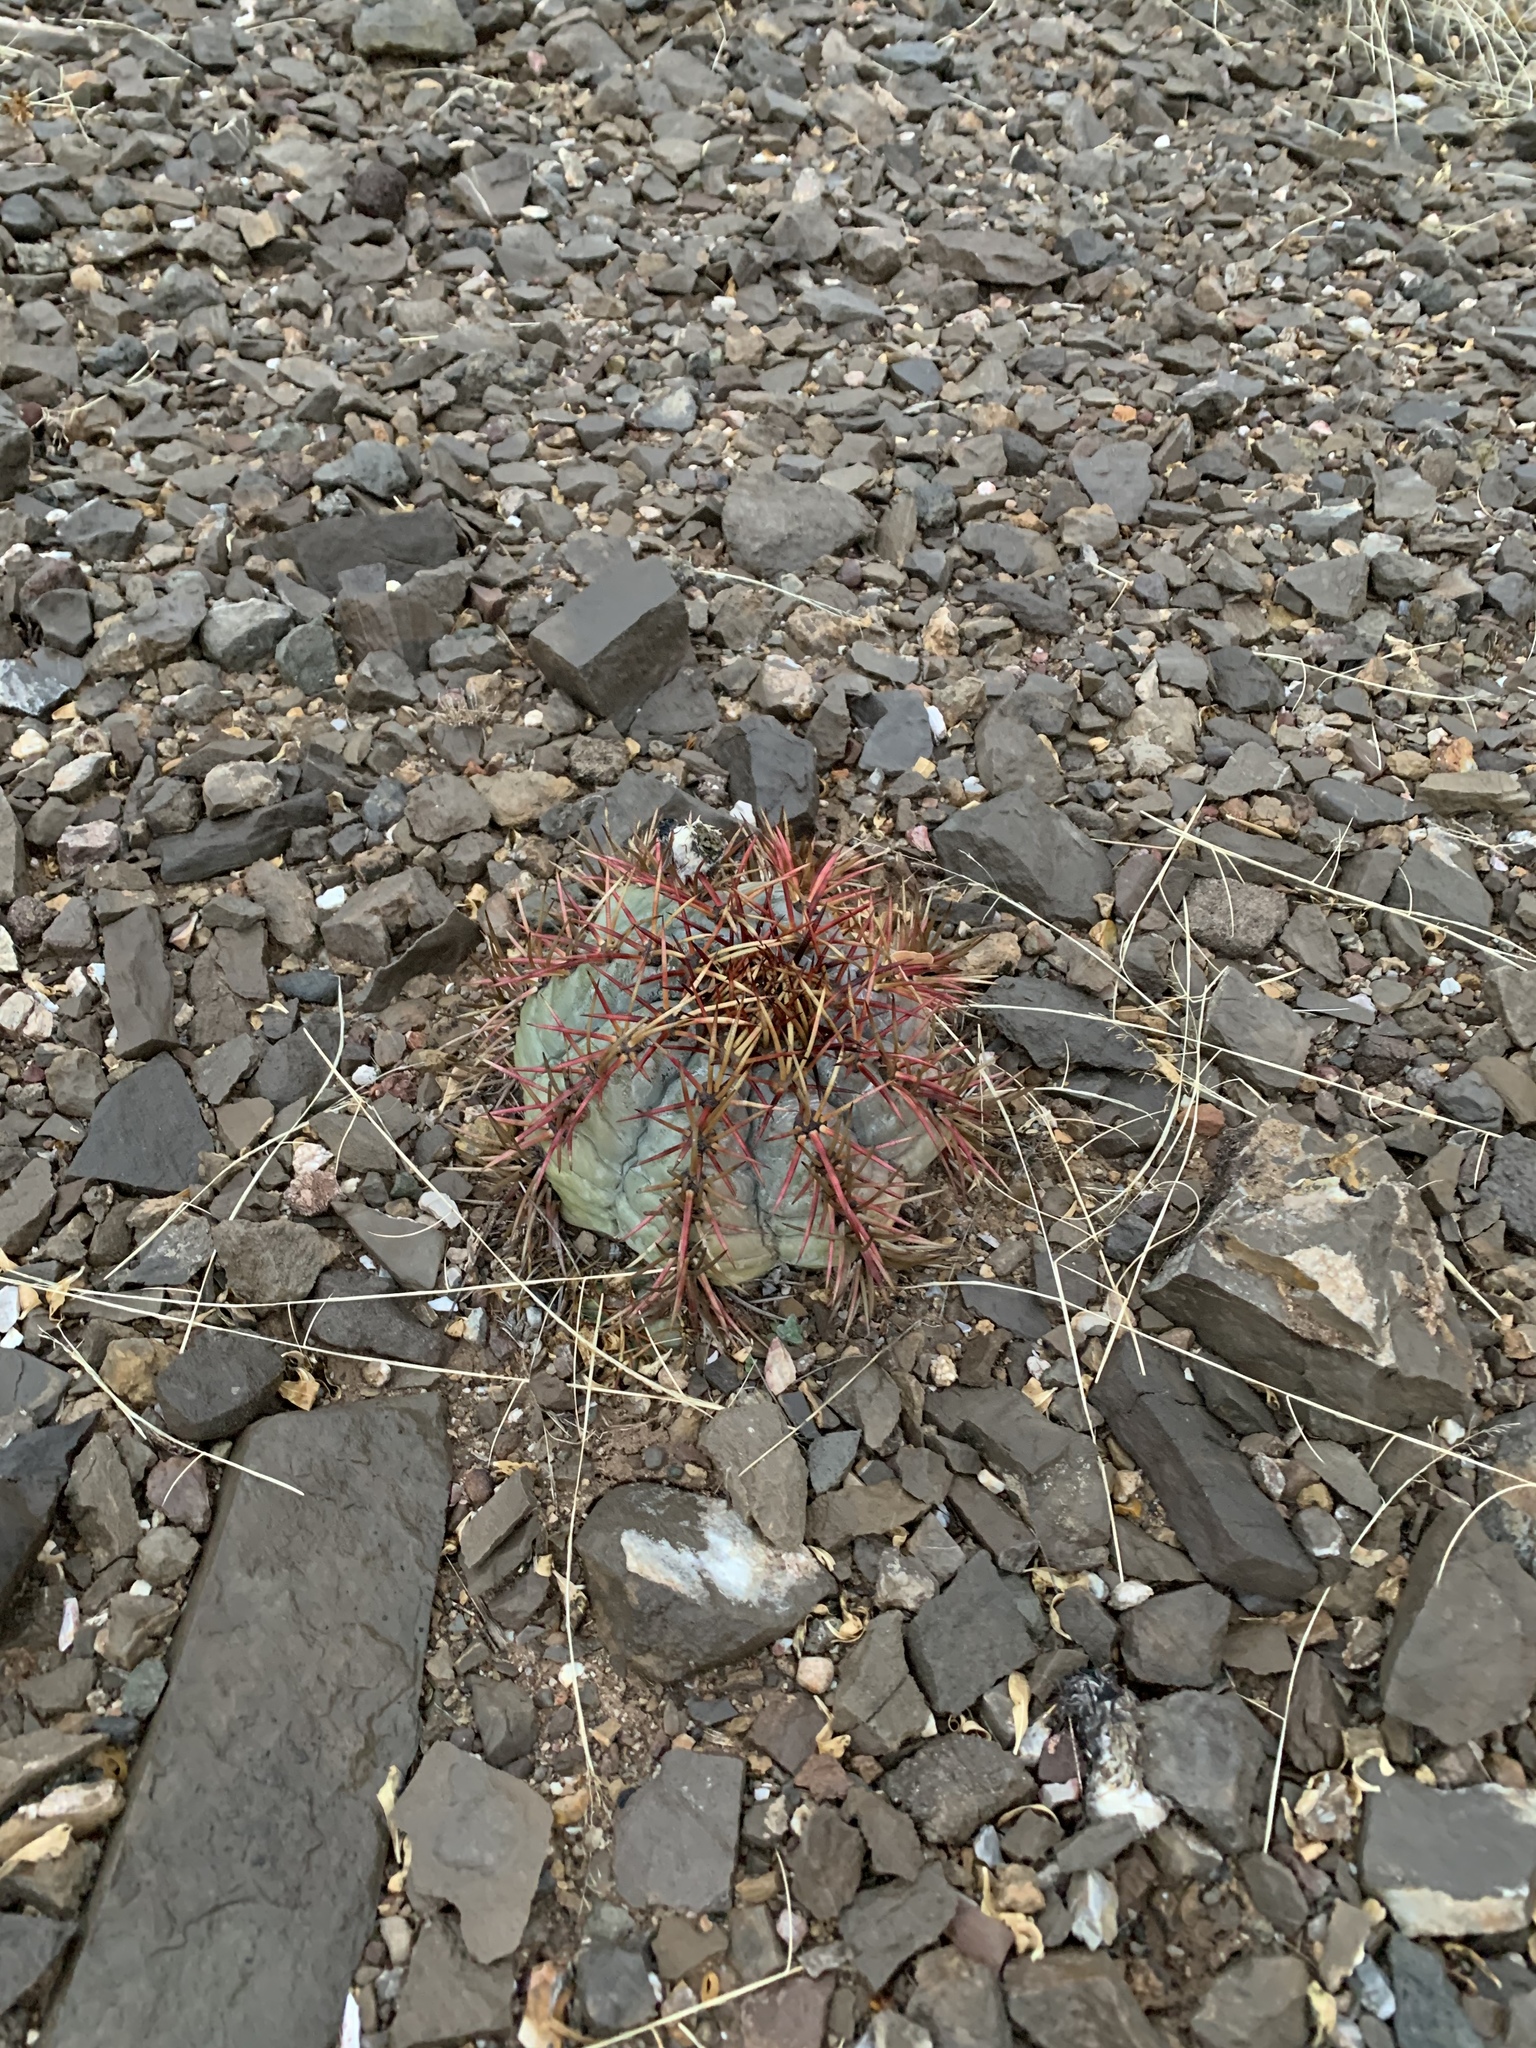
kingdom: Plantae
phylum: Tracheophyta
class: Magnoliopsida
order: Caryophyllales
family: Cactaceae
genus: Echinocactus
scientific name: Echinocactus horizonthalonius
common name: Devilshead
